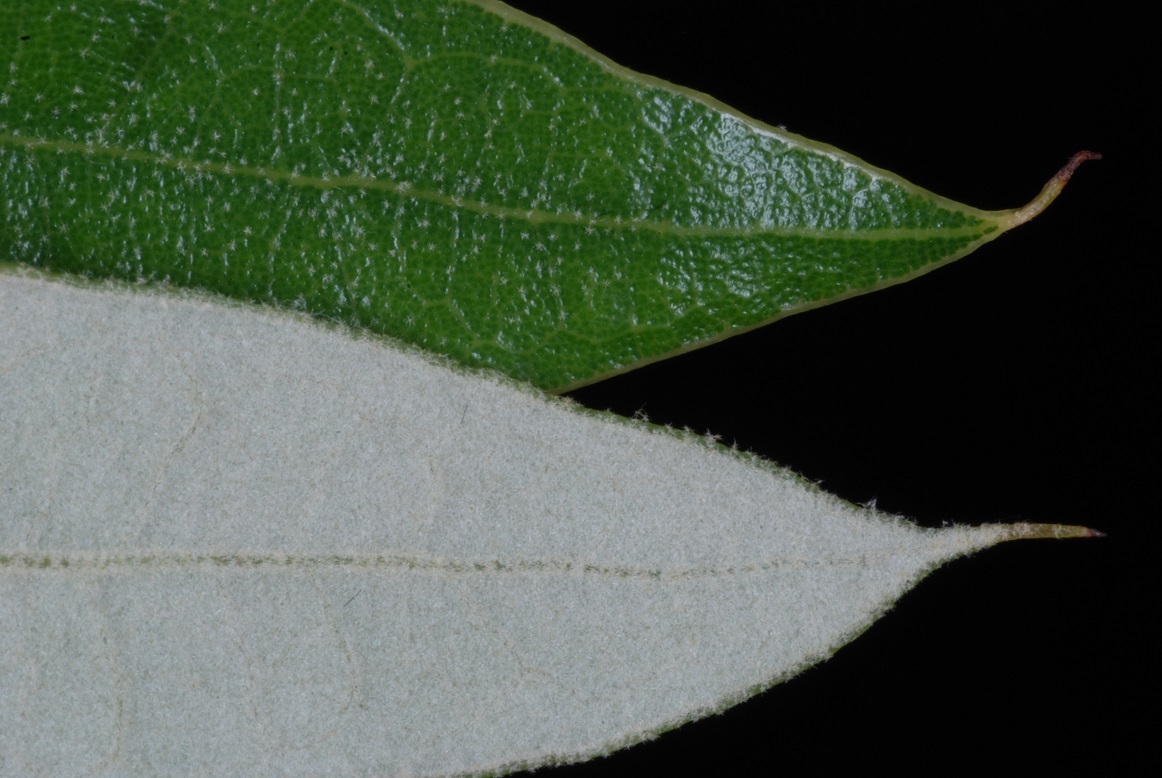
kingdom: Plantae
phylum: Tracheophyta
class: Magnoliopsida
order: Fagales
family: Fagaceae
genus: Quercus
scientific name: Quercus pumila
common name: Runner oak
